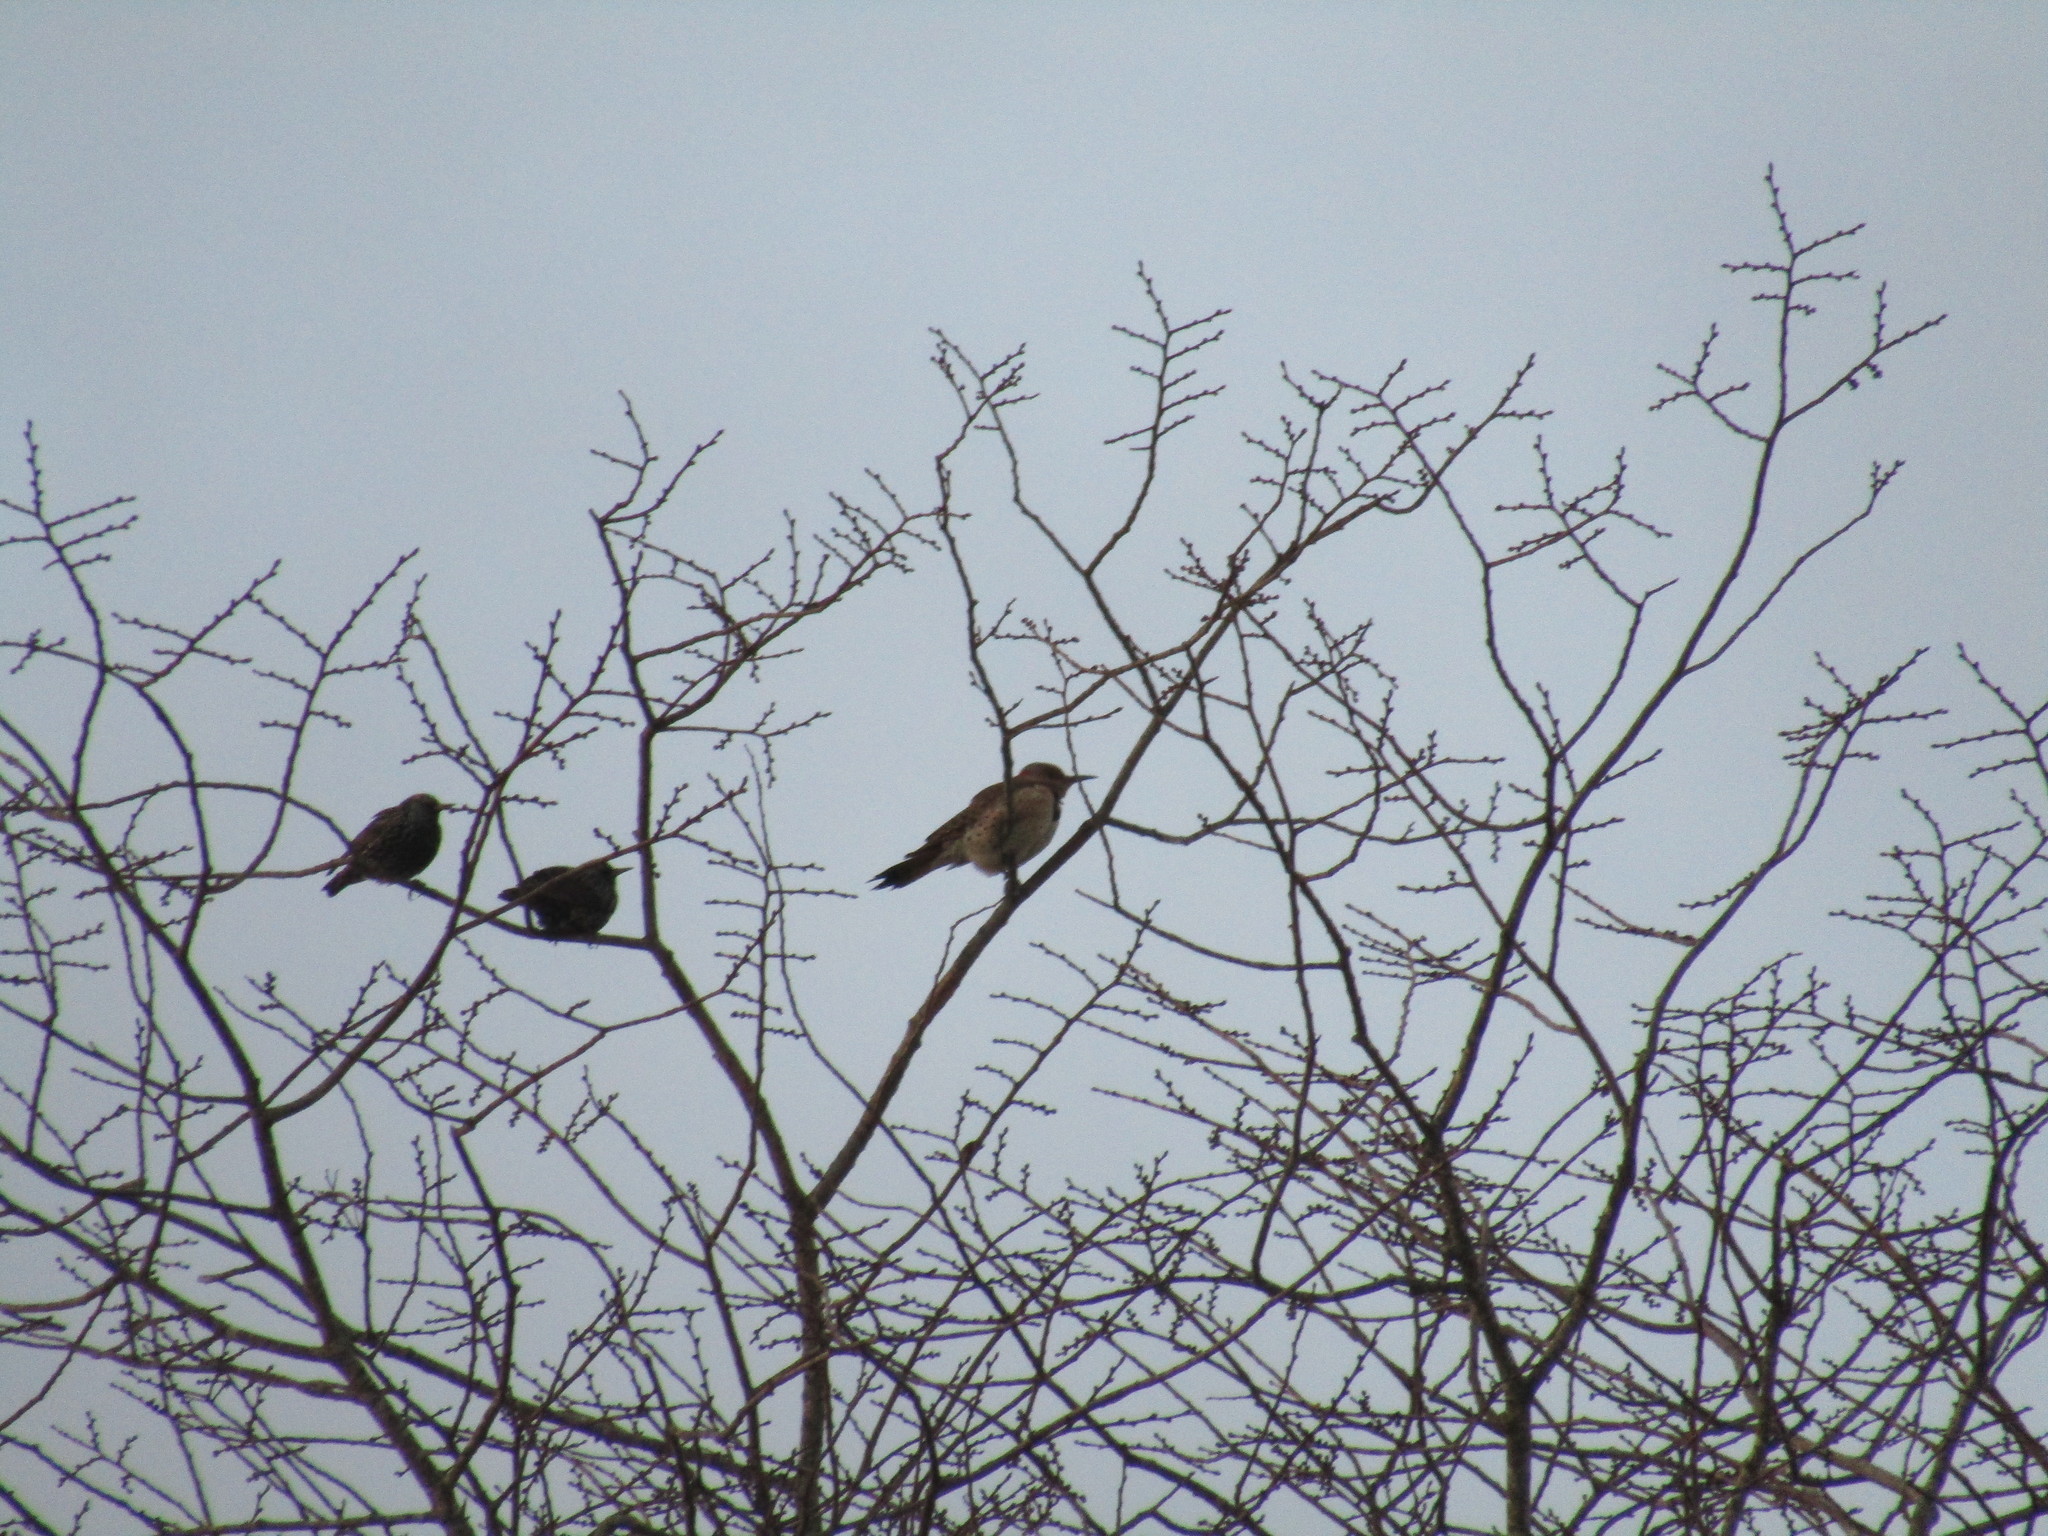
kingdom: Animalia
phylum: Chordata
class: Aves
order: Piciformes
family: Picidae
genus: Colaptes
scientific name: Colaptes auratus
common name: Northern flicker
